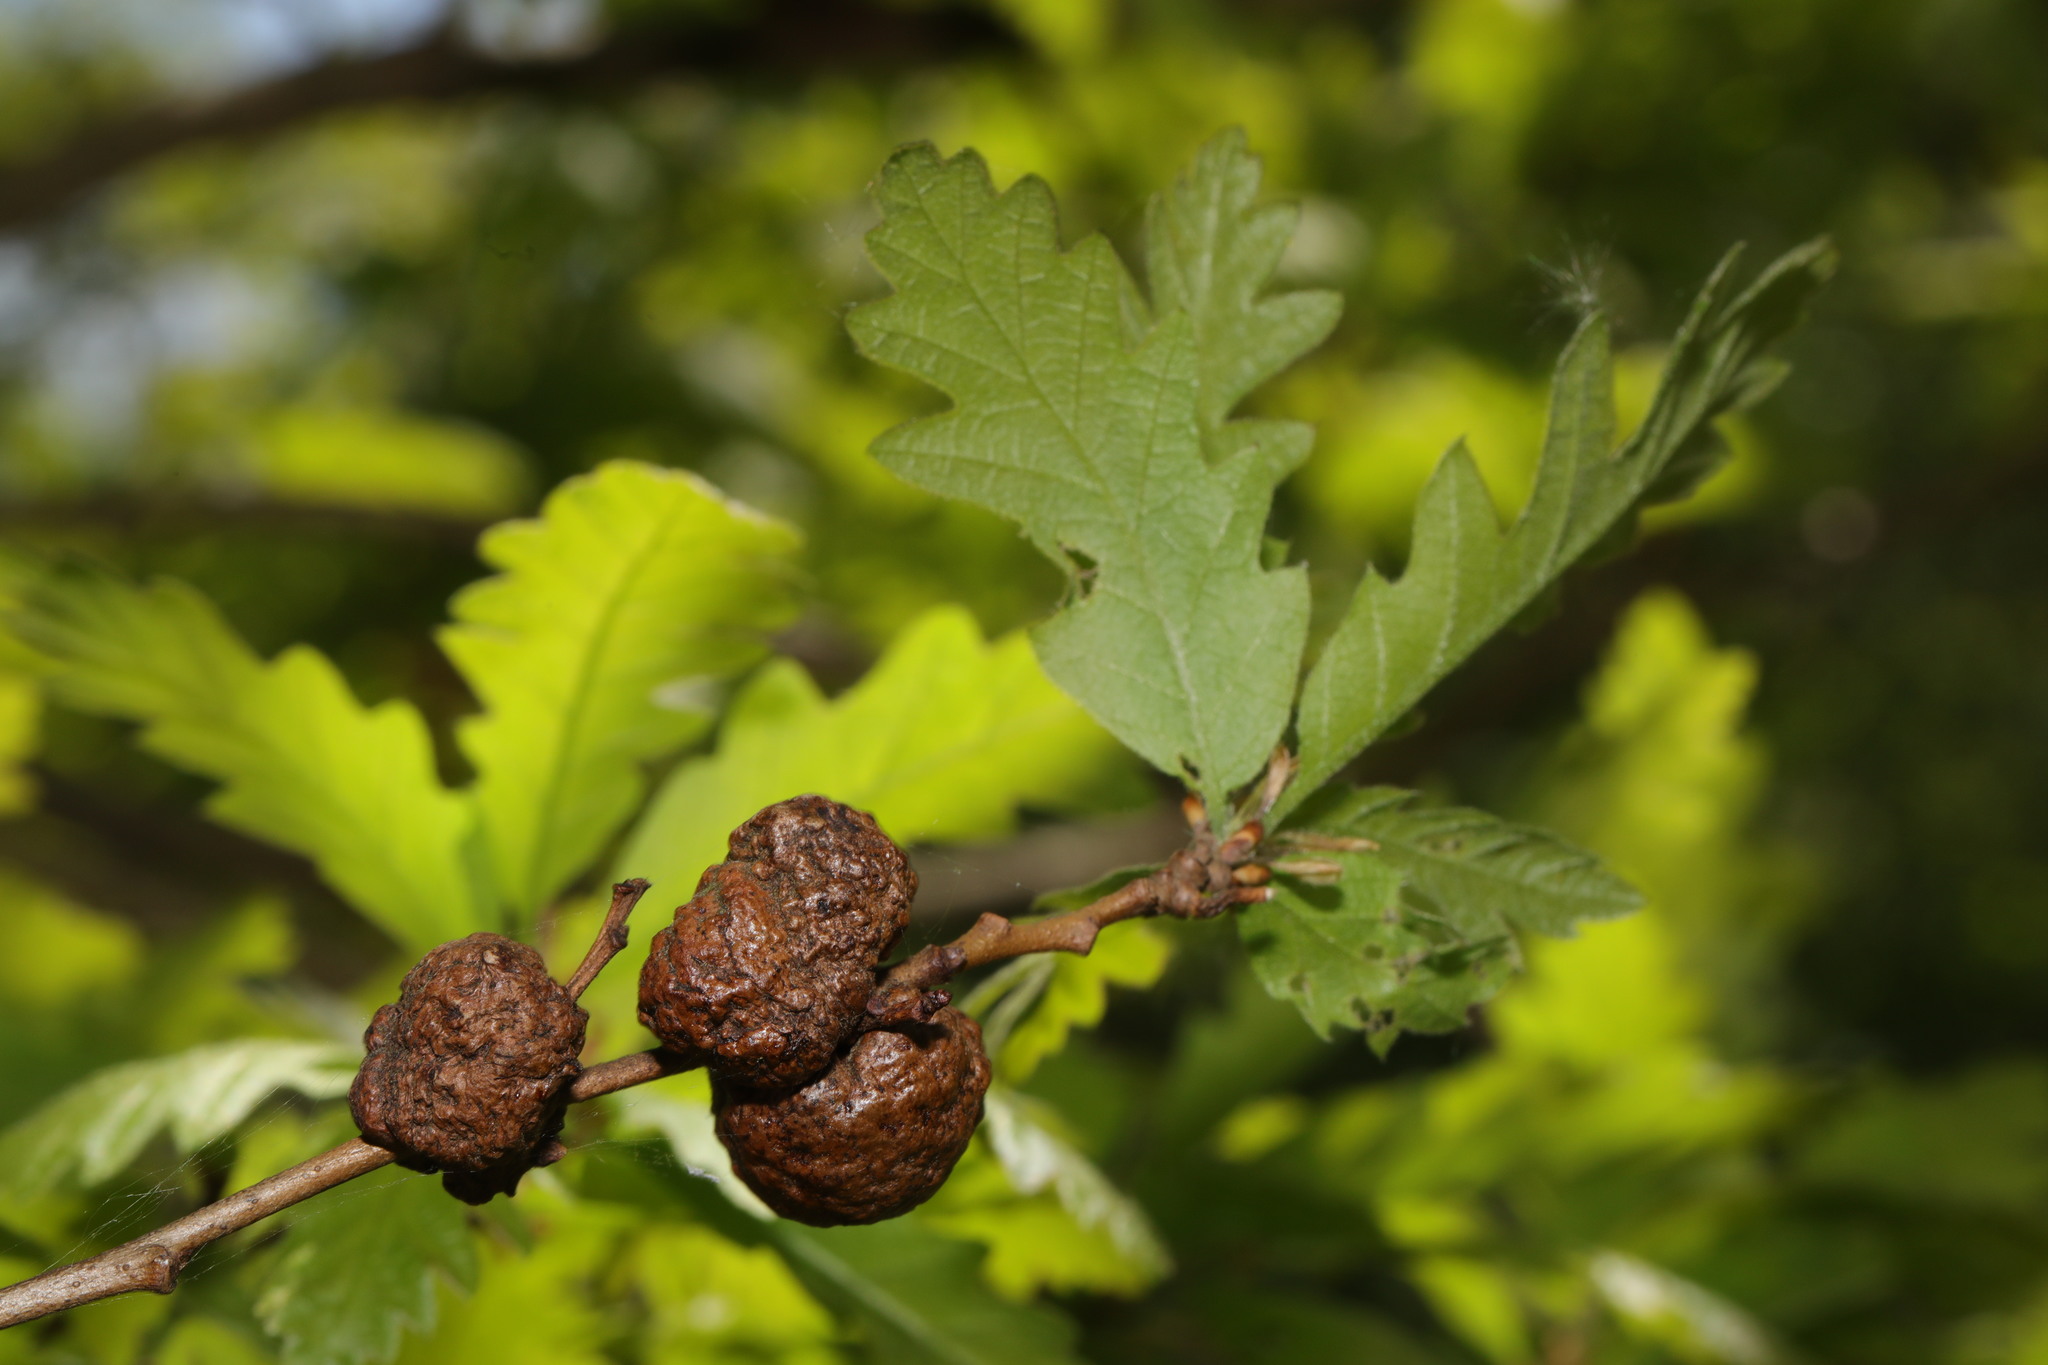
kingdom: Animalia
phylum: Arthropoda
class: Insecta
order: Hymenoptera
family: Cynipidae
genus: Aphelonyx
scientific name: Aphelonyx cerricola
